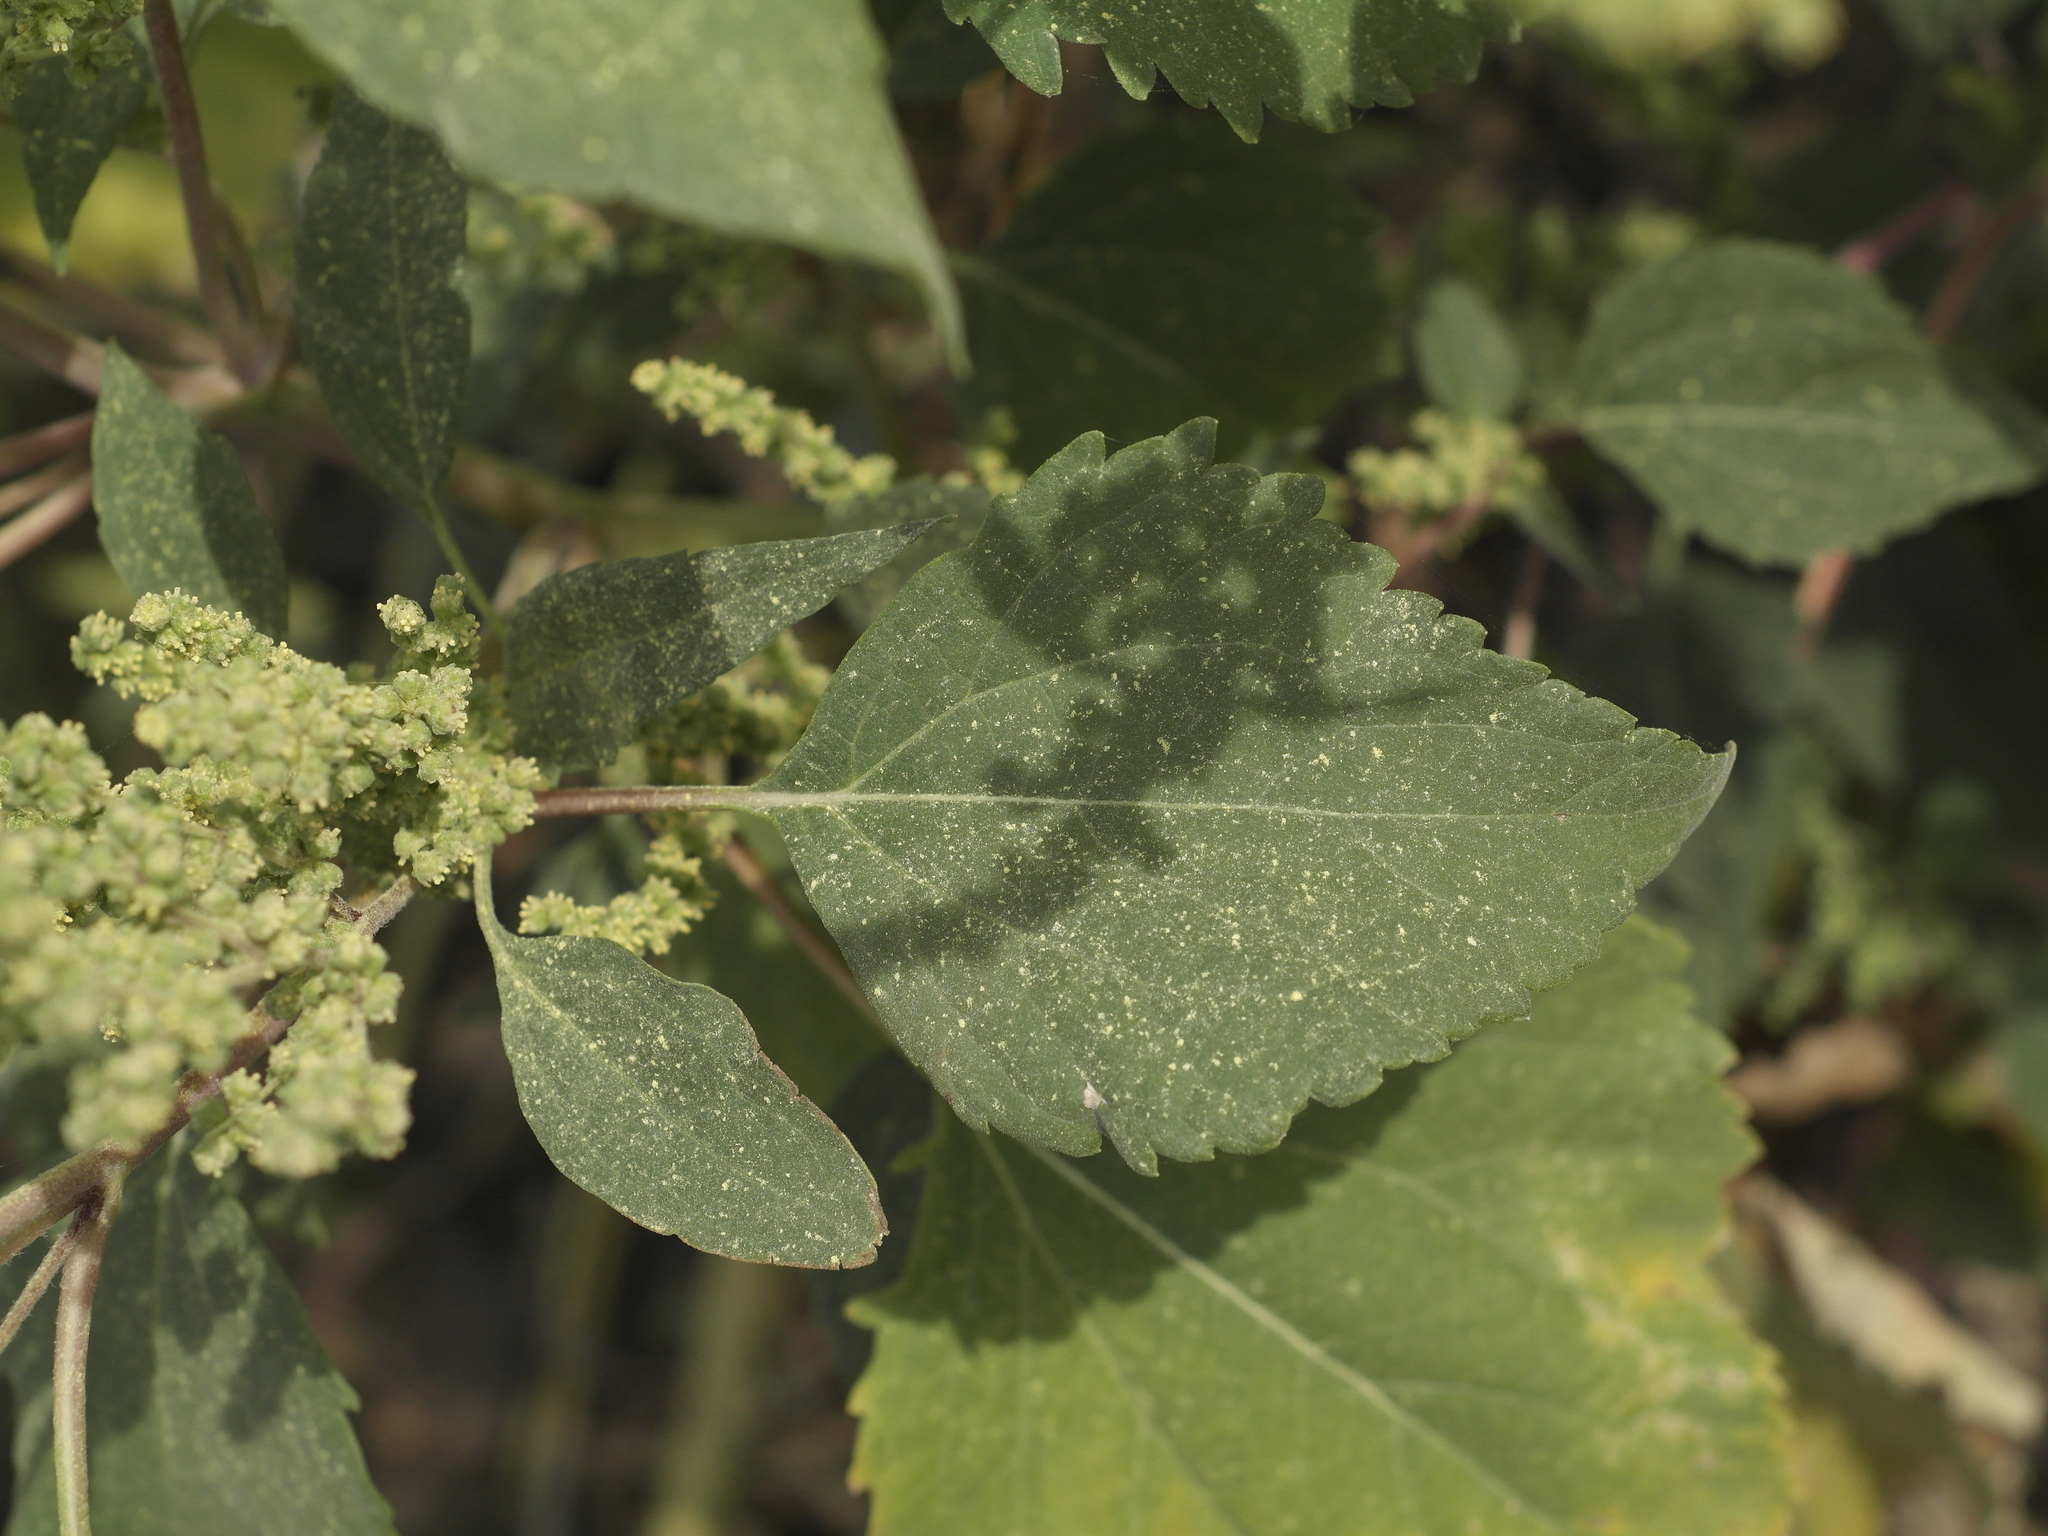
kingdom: Plantae
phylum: Tracheophyta
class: Magnoliopsida
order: Asterales
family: Asteraceae
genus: Cyclachaena
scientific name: Cyclachaena xanthiifolia
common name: Giant sumpweed
